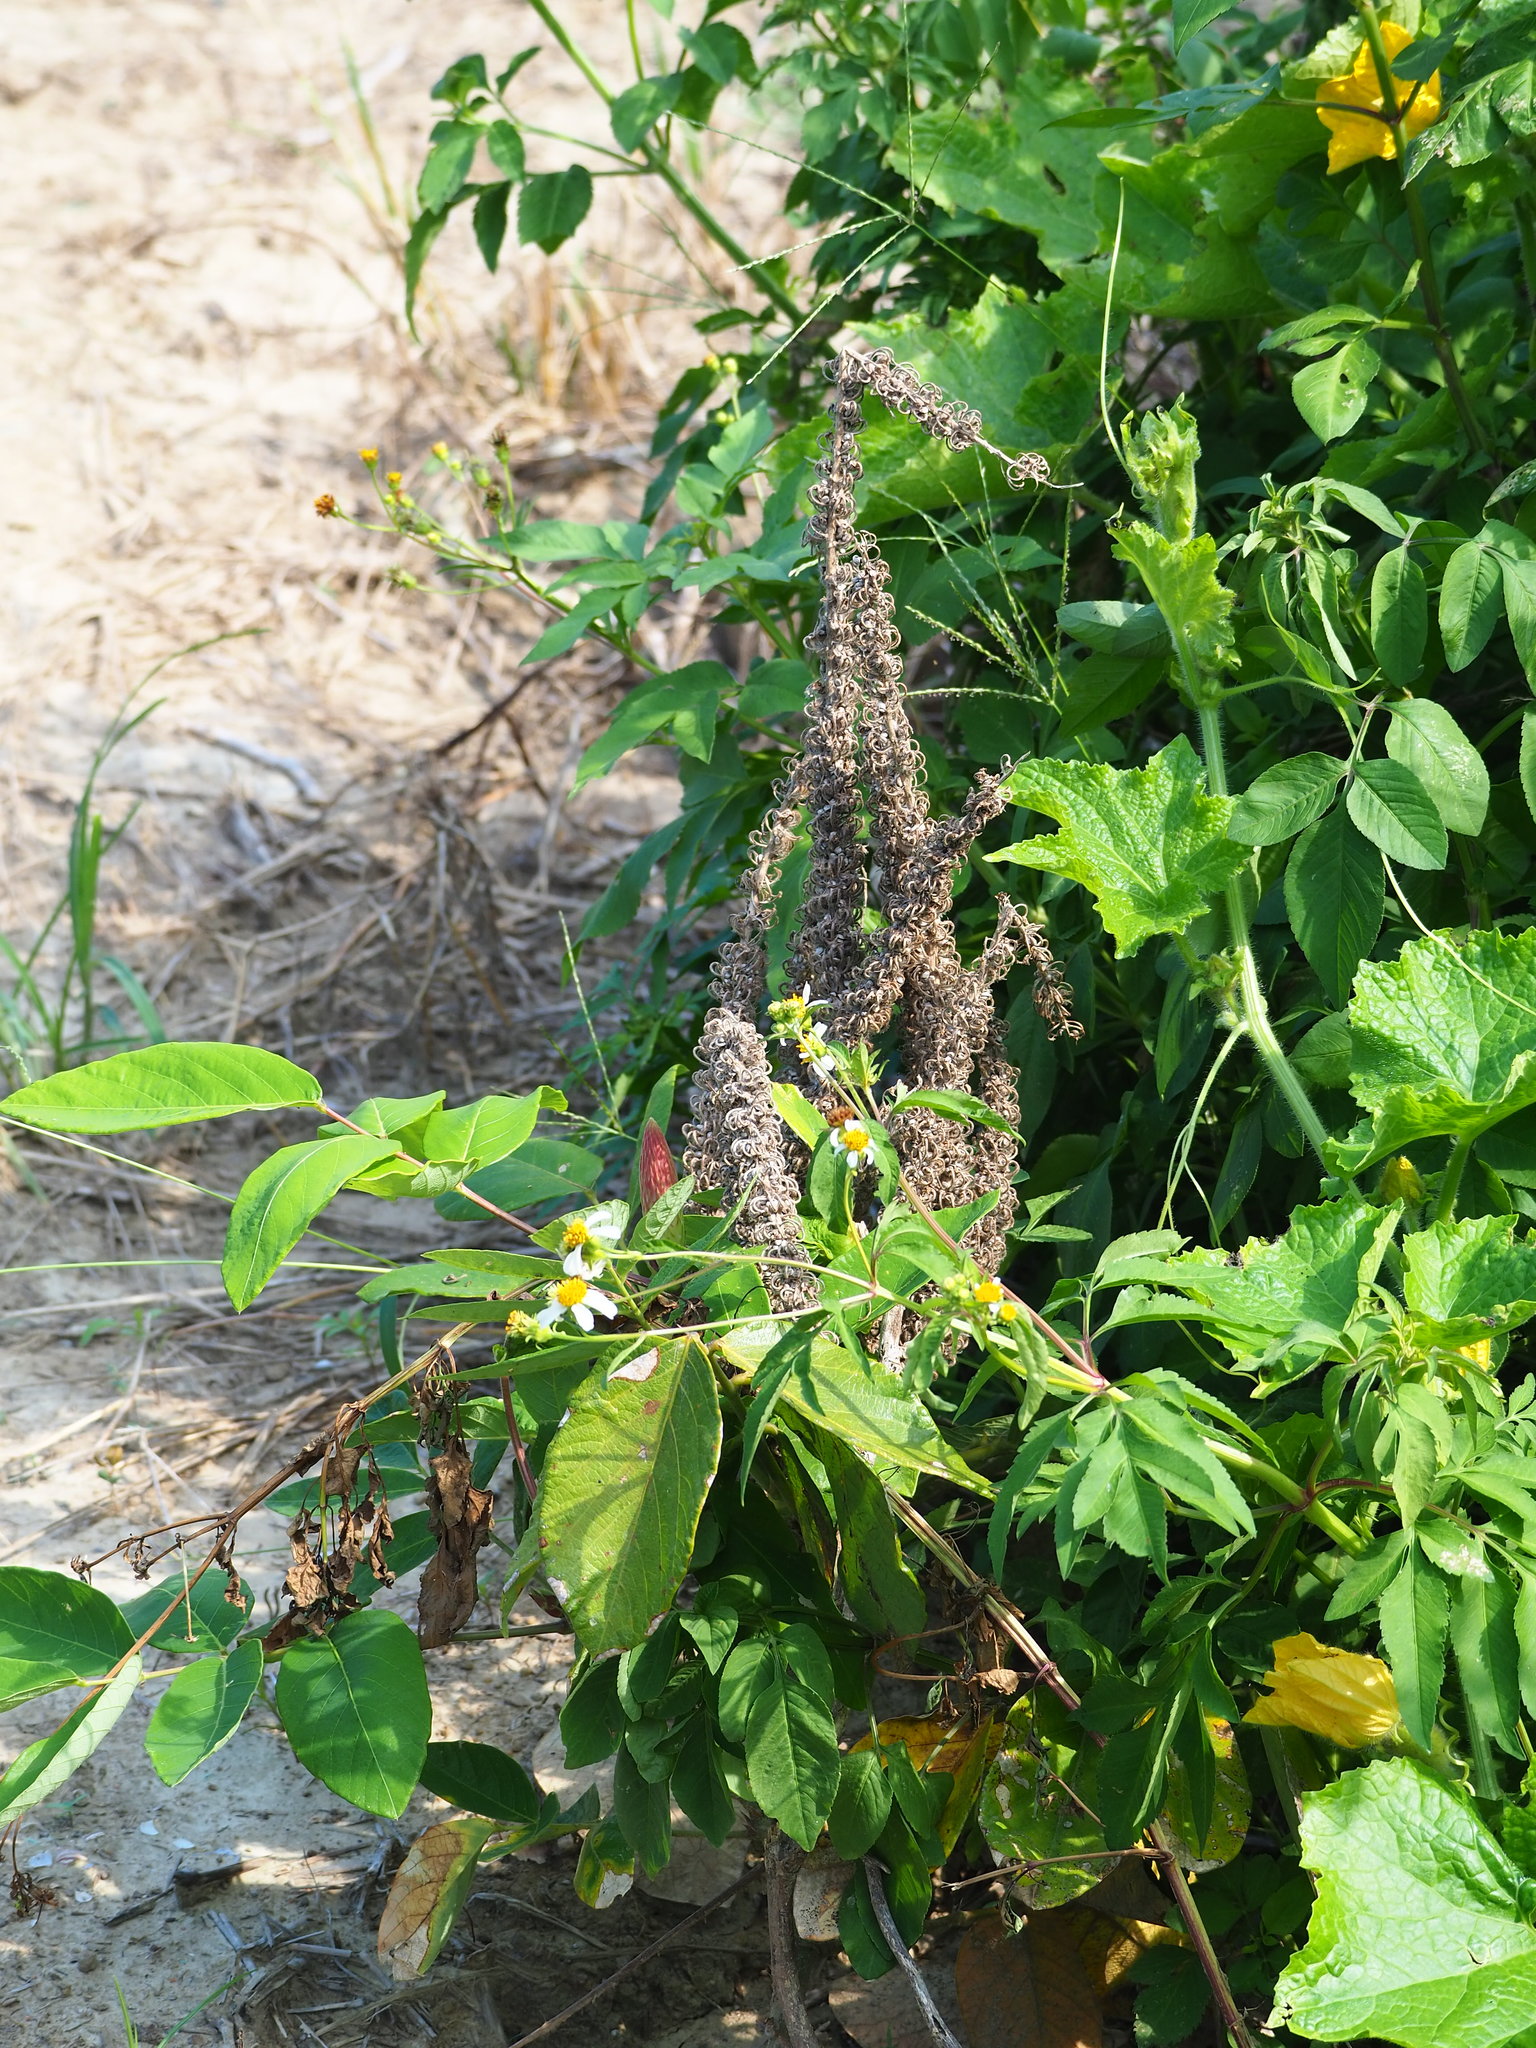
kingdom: Plantae
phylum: Tracheophyta
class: Magnoliopsida
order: Fabales
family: Fabaceae
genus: Uraria
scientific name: Uraria crinita
